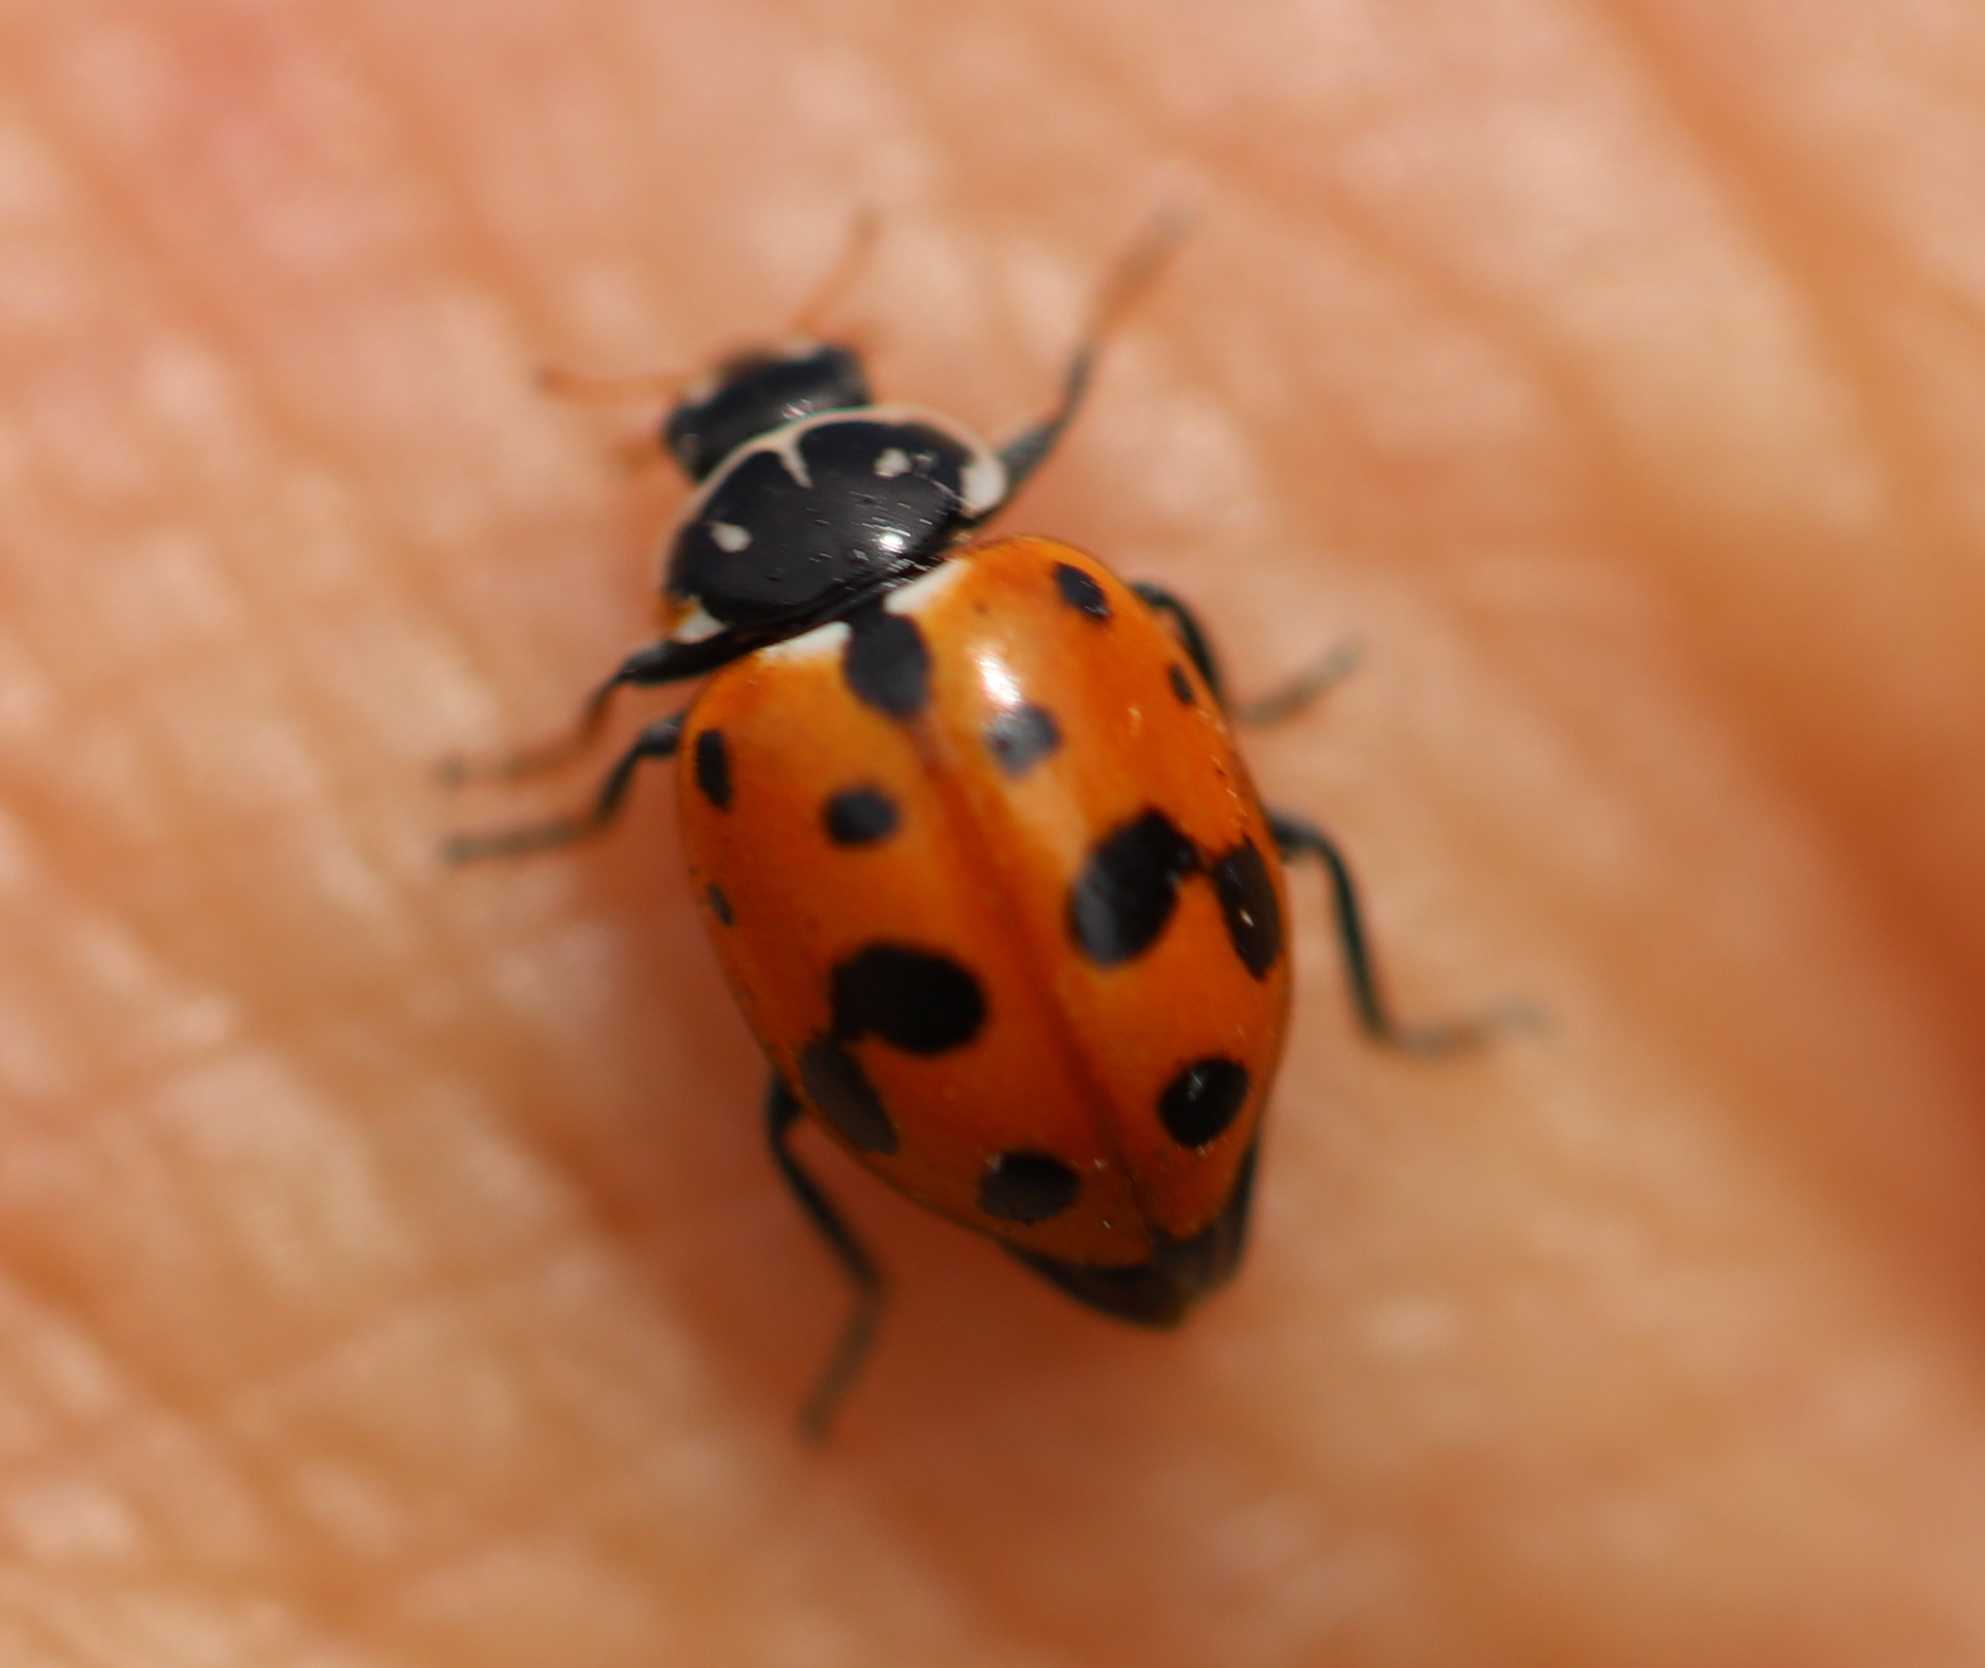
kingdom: Animalia
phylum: Arthropoda
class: Insecta
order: Coleoptera
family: Coccinellidae
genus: Hippodamia
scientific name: Hippodamia variegata
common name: Ladybird beetle
